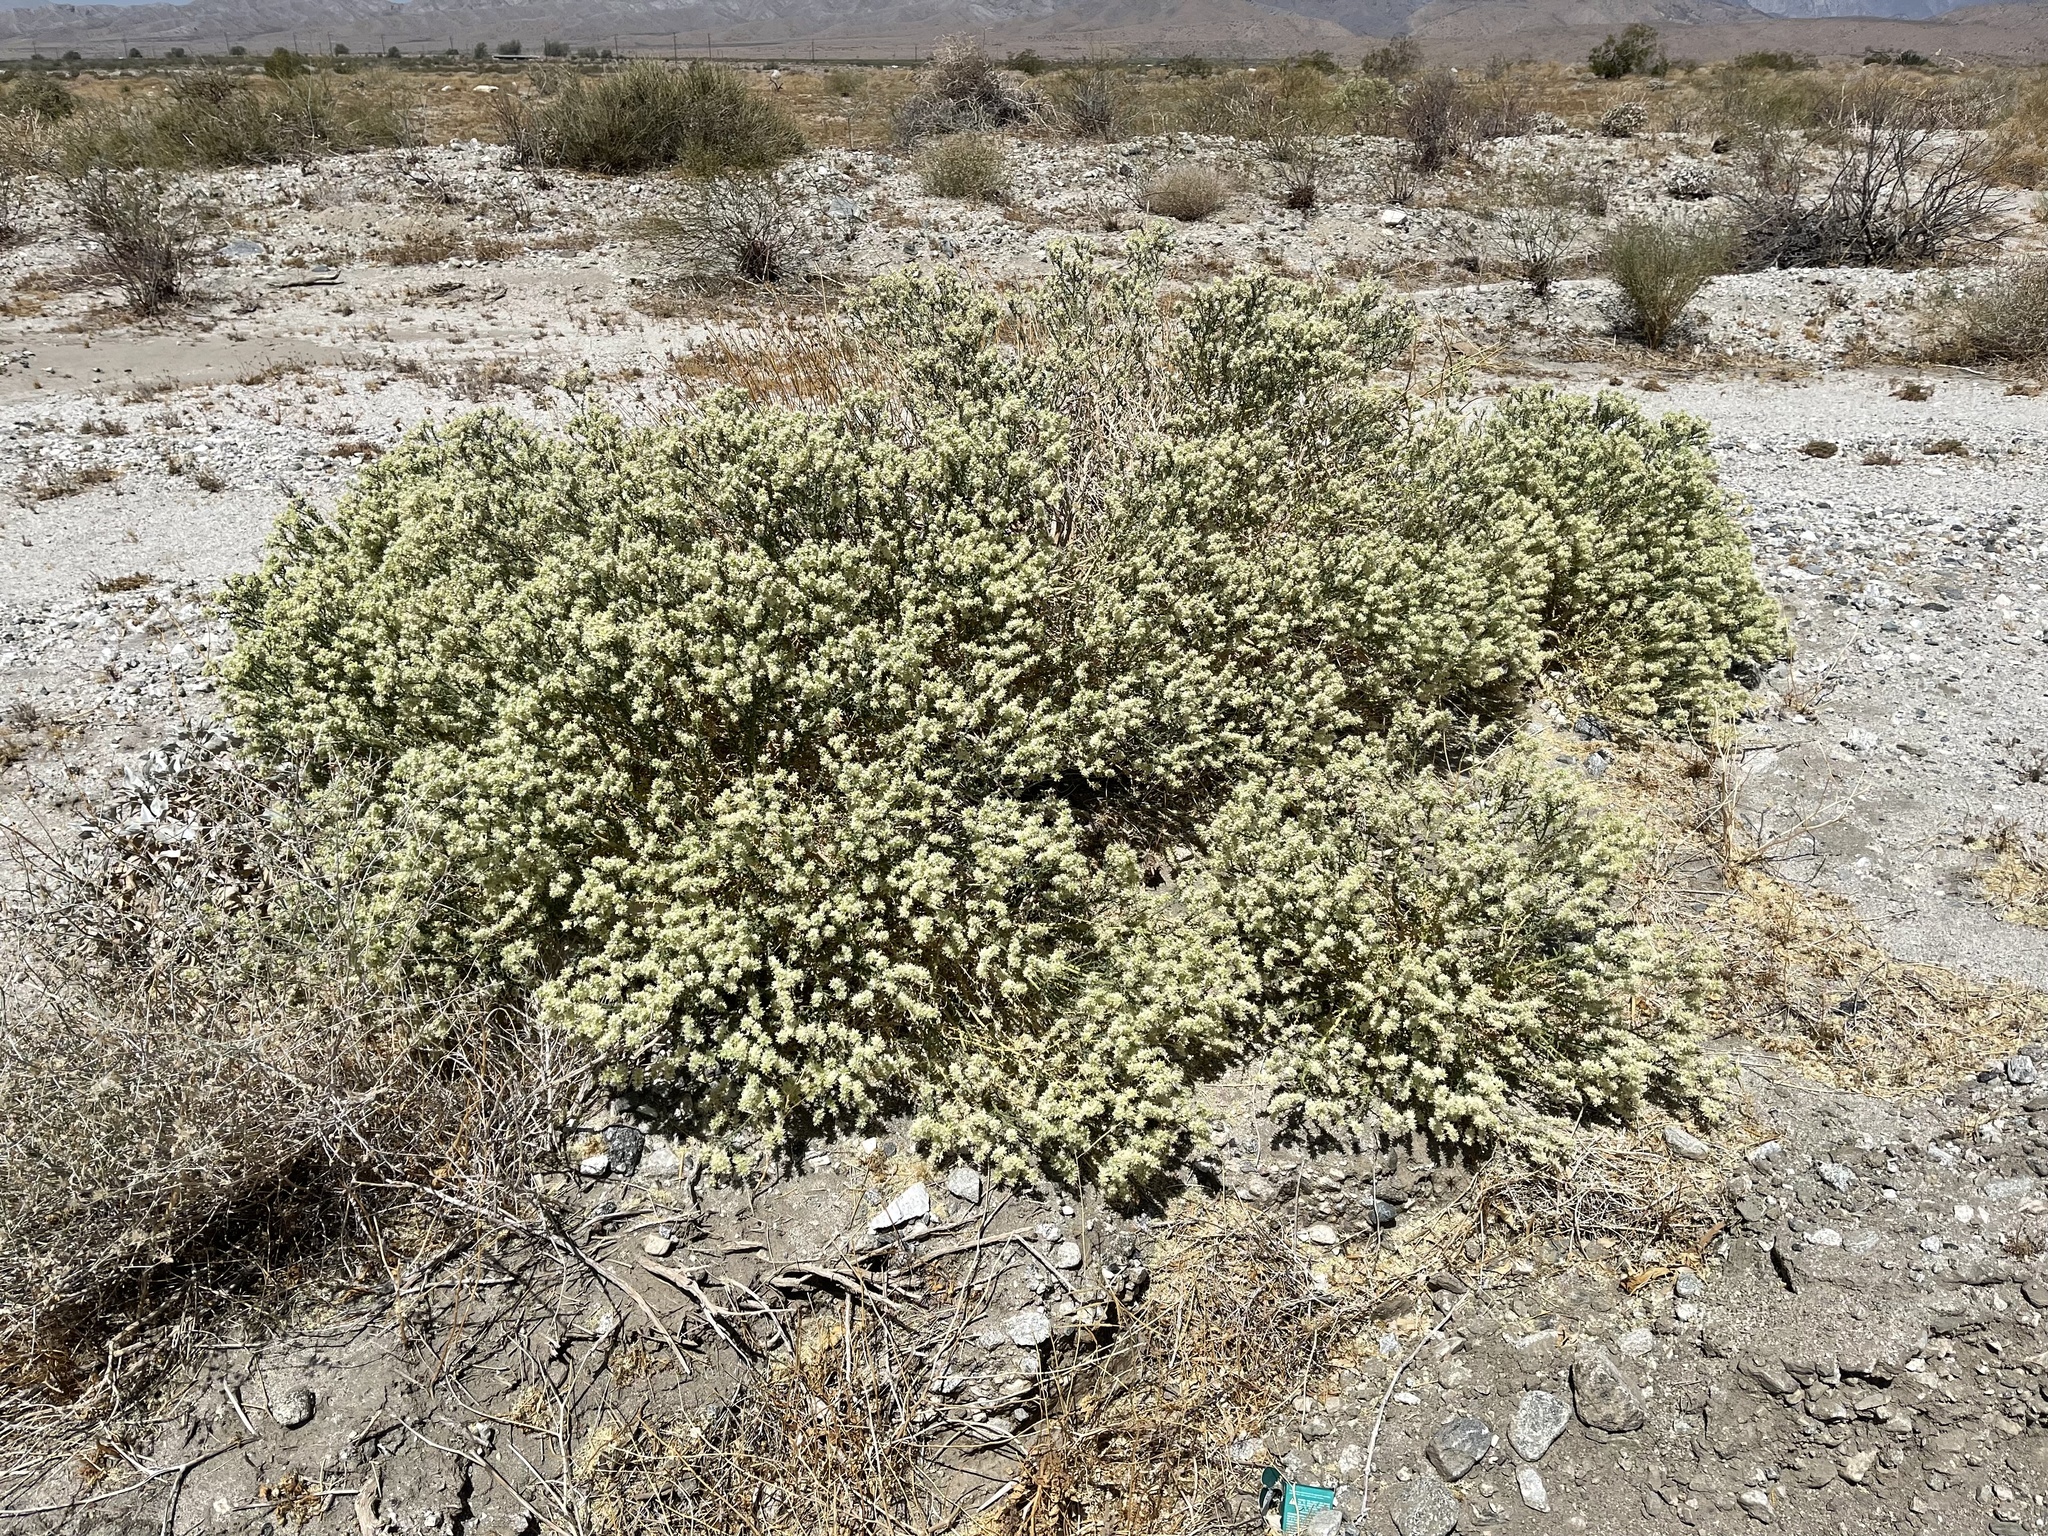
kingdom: Plantae
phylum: Tracheophyta
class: Magnoliopsida
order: Cornales
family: Loasaceae
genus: Petalonyx
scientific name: Petalonyx thurberi
